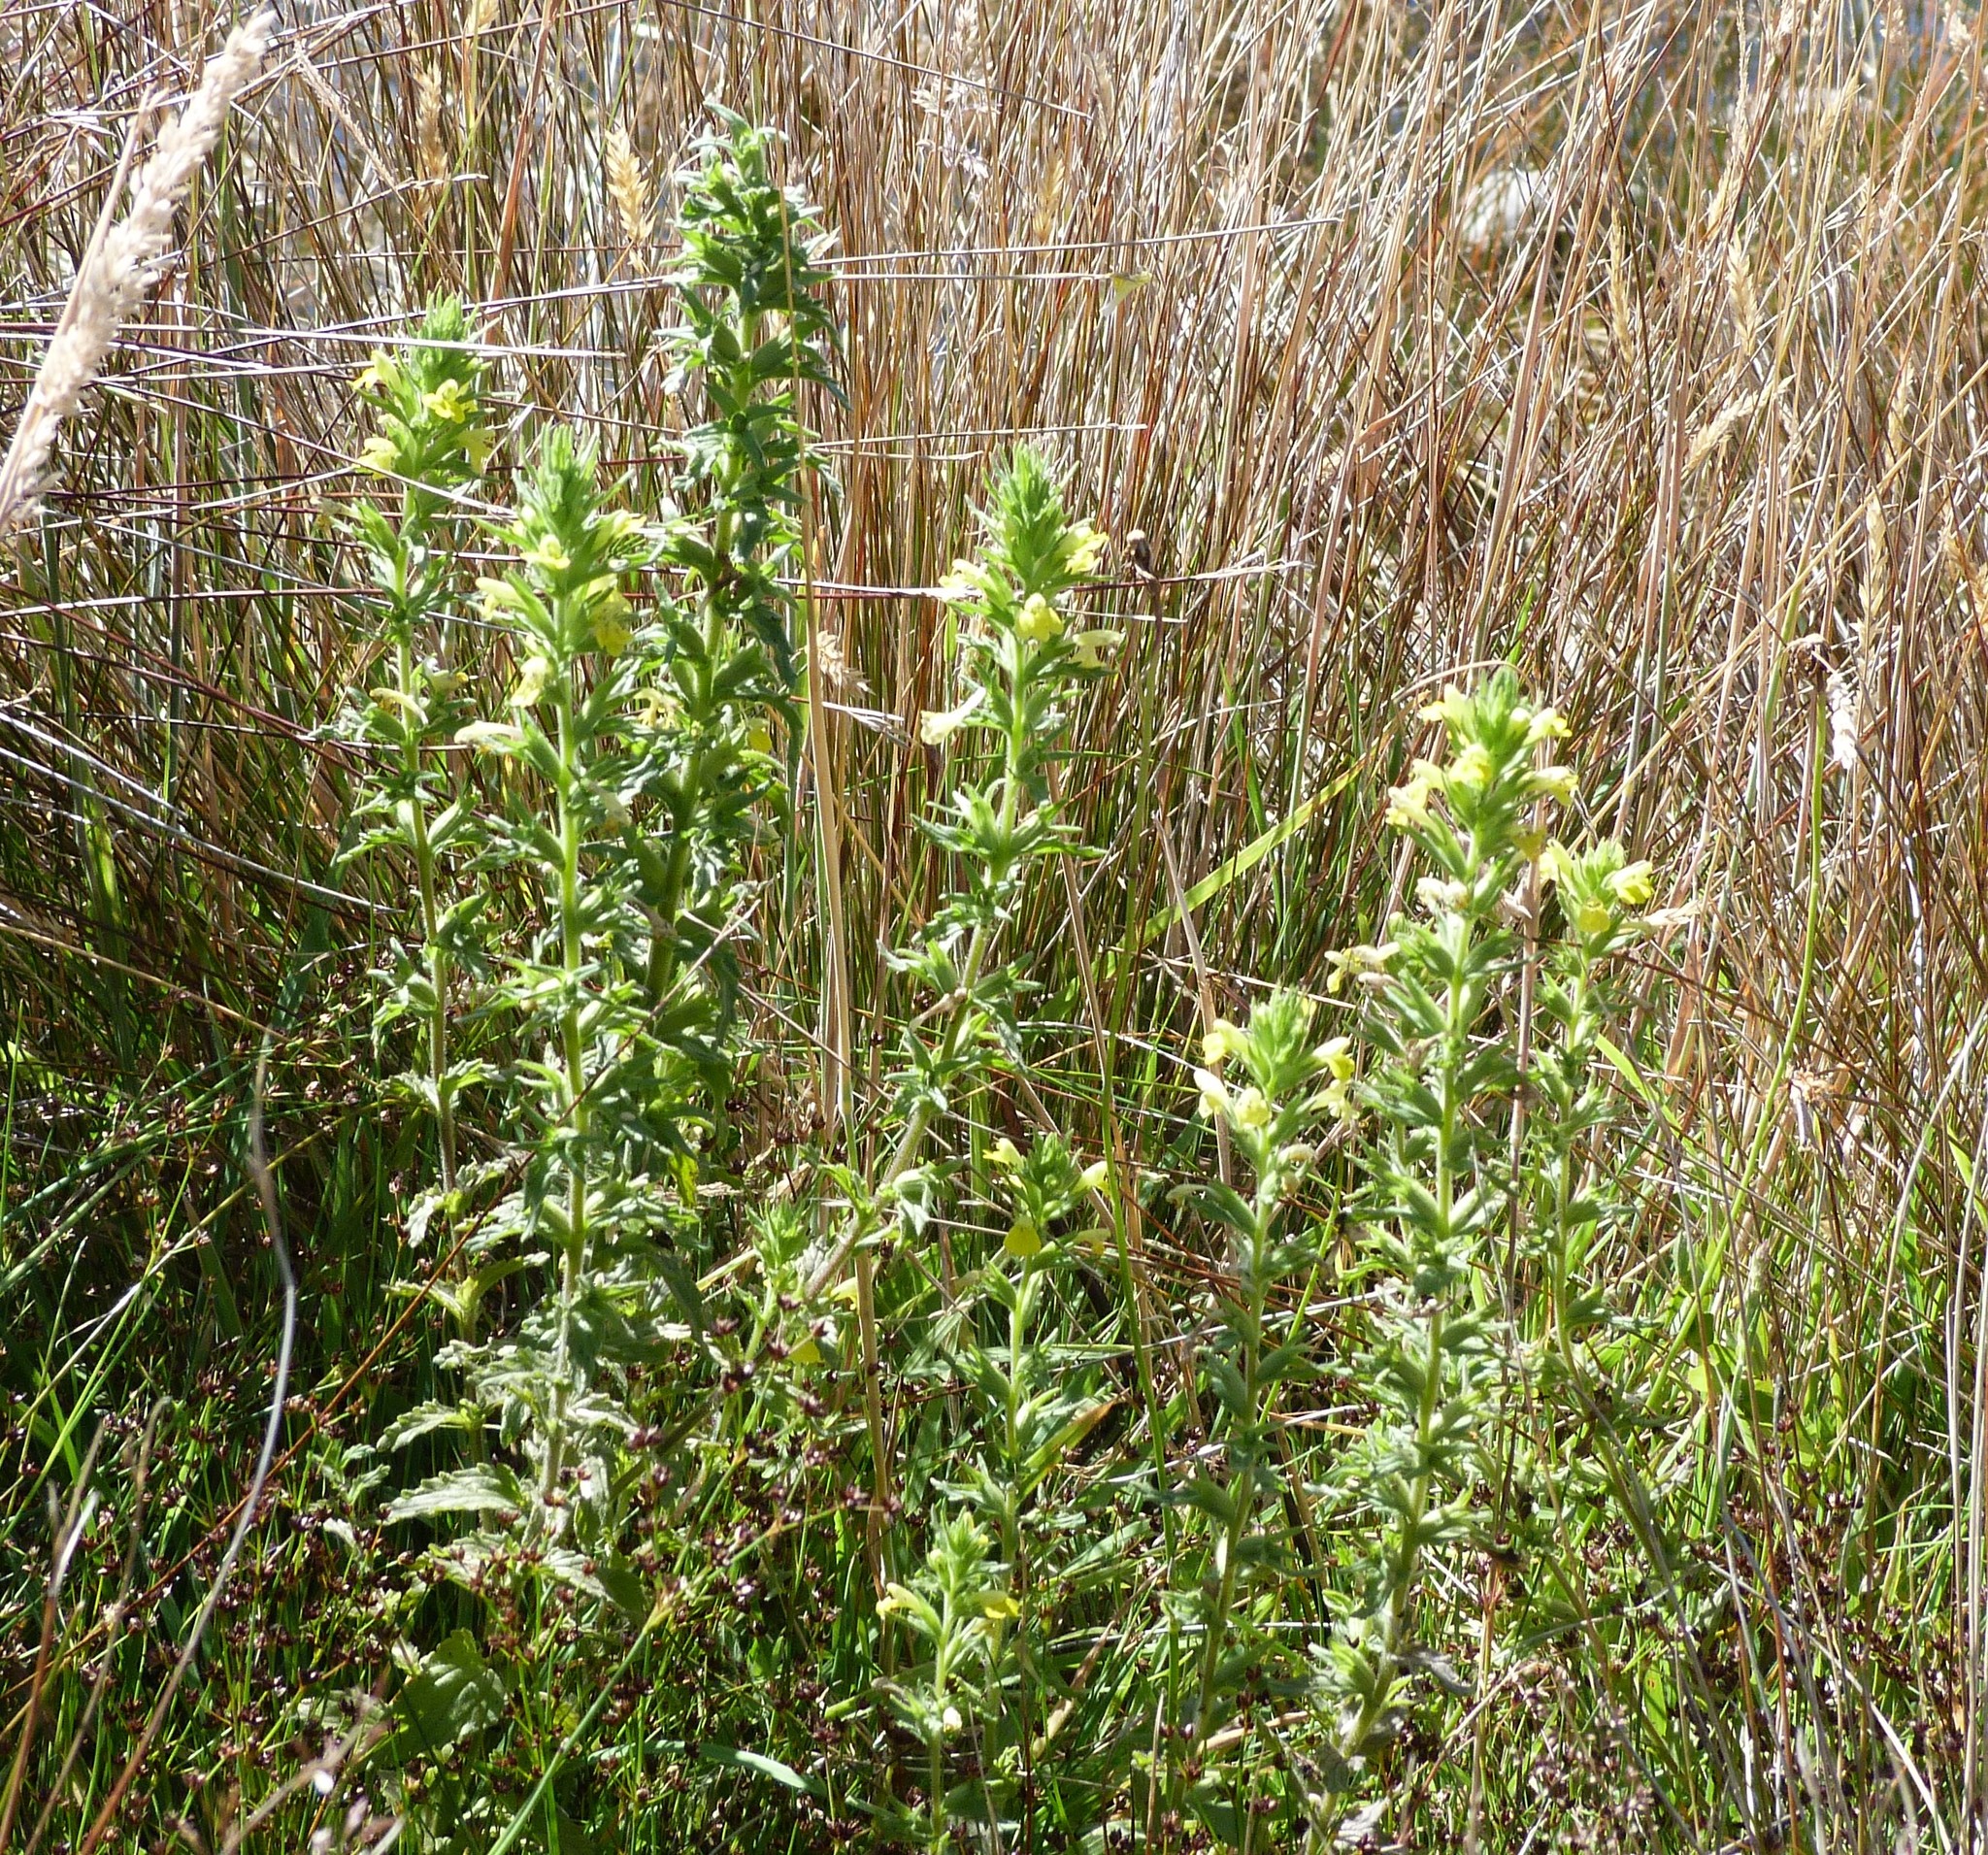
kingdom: Plantae
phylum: Tracheophyta
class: Magnoliopsida
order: Lamiales
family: Orobanchaceae
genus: Bellardia
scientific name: Bellardia viscosa
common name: Sticky parentucellia
